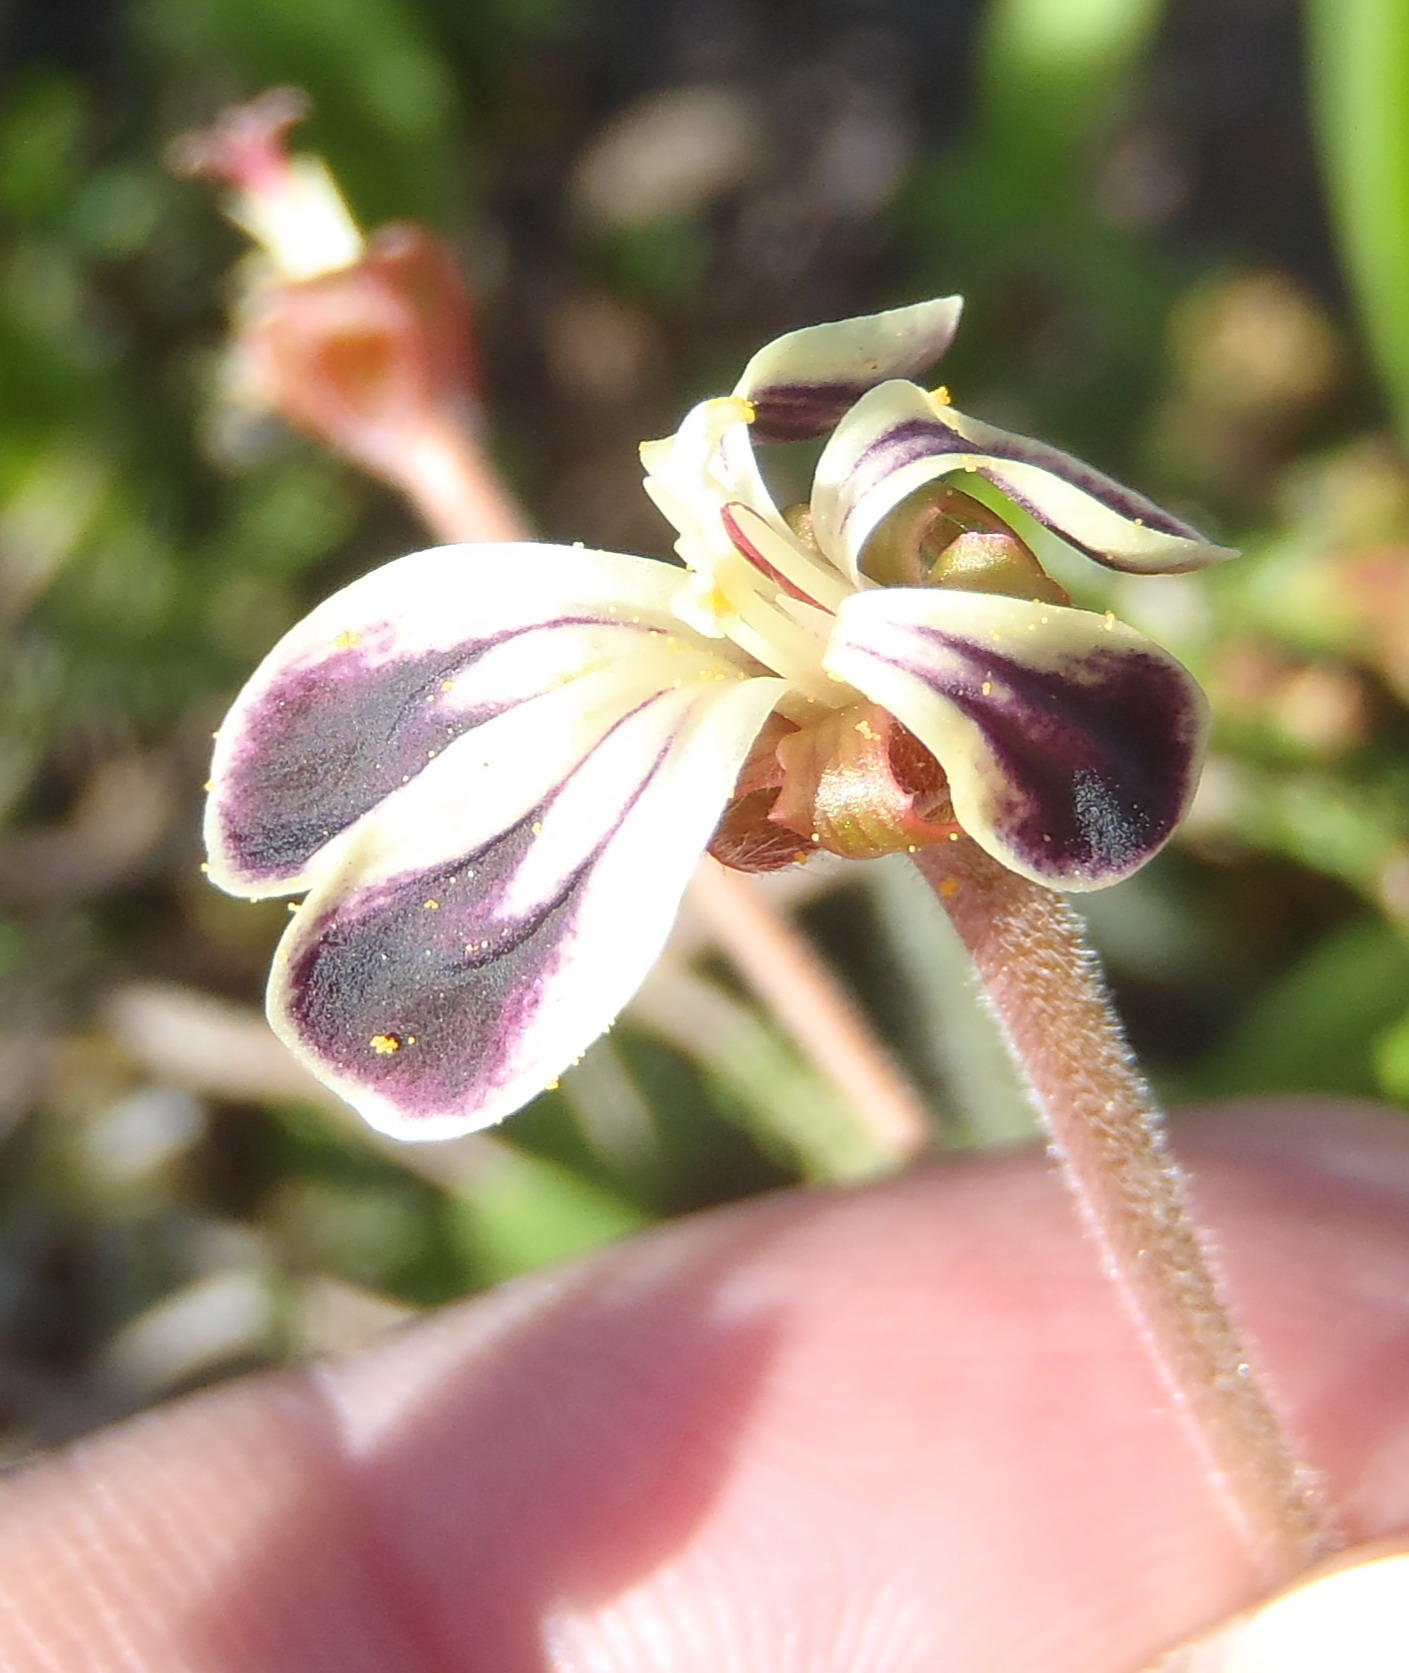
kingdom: Plantae
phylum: Tracheophyta
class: Magnoliopsida
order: Geraniales
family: Geraniaceae
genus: Pelargonium
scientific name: Pelargonium lobatum
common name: Vine-leaf pelargonium
